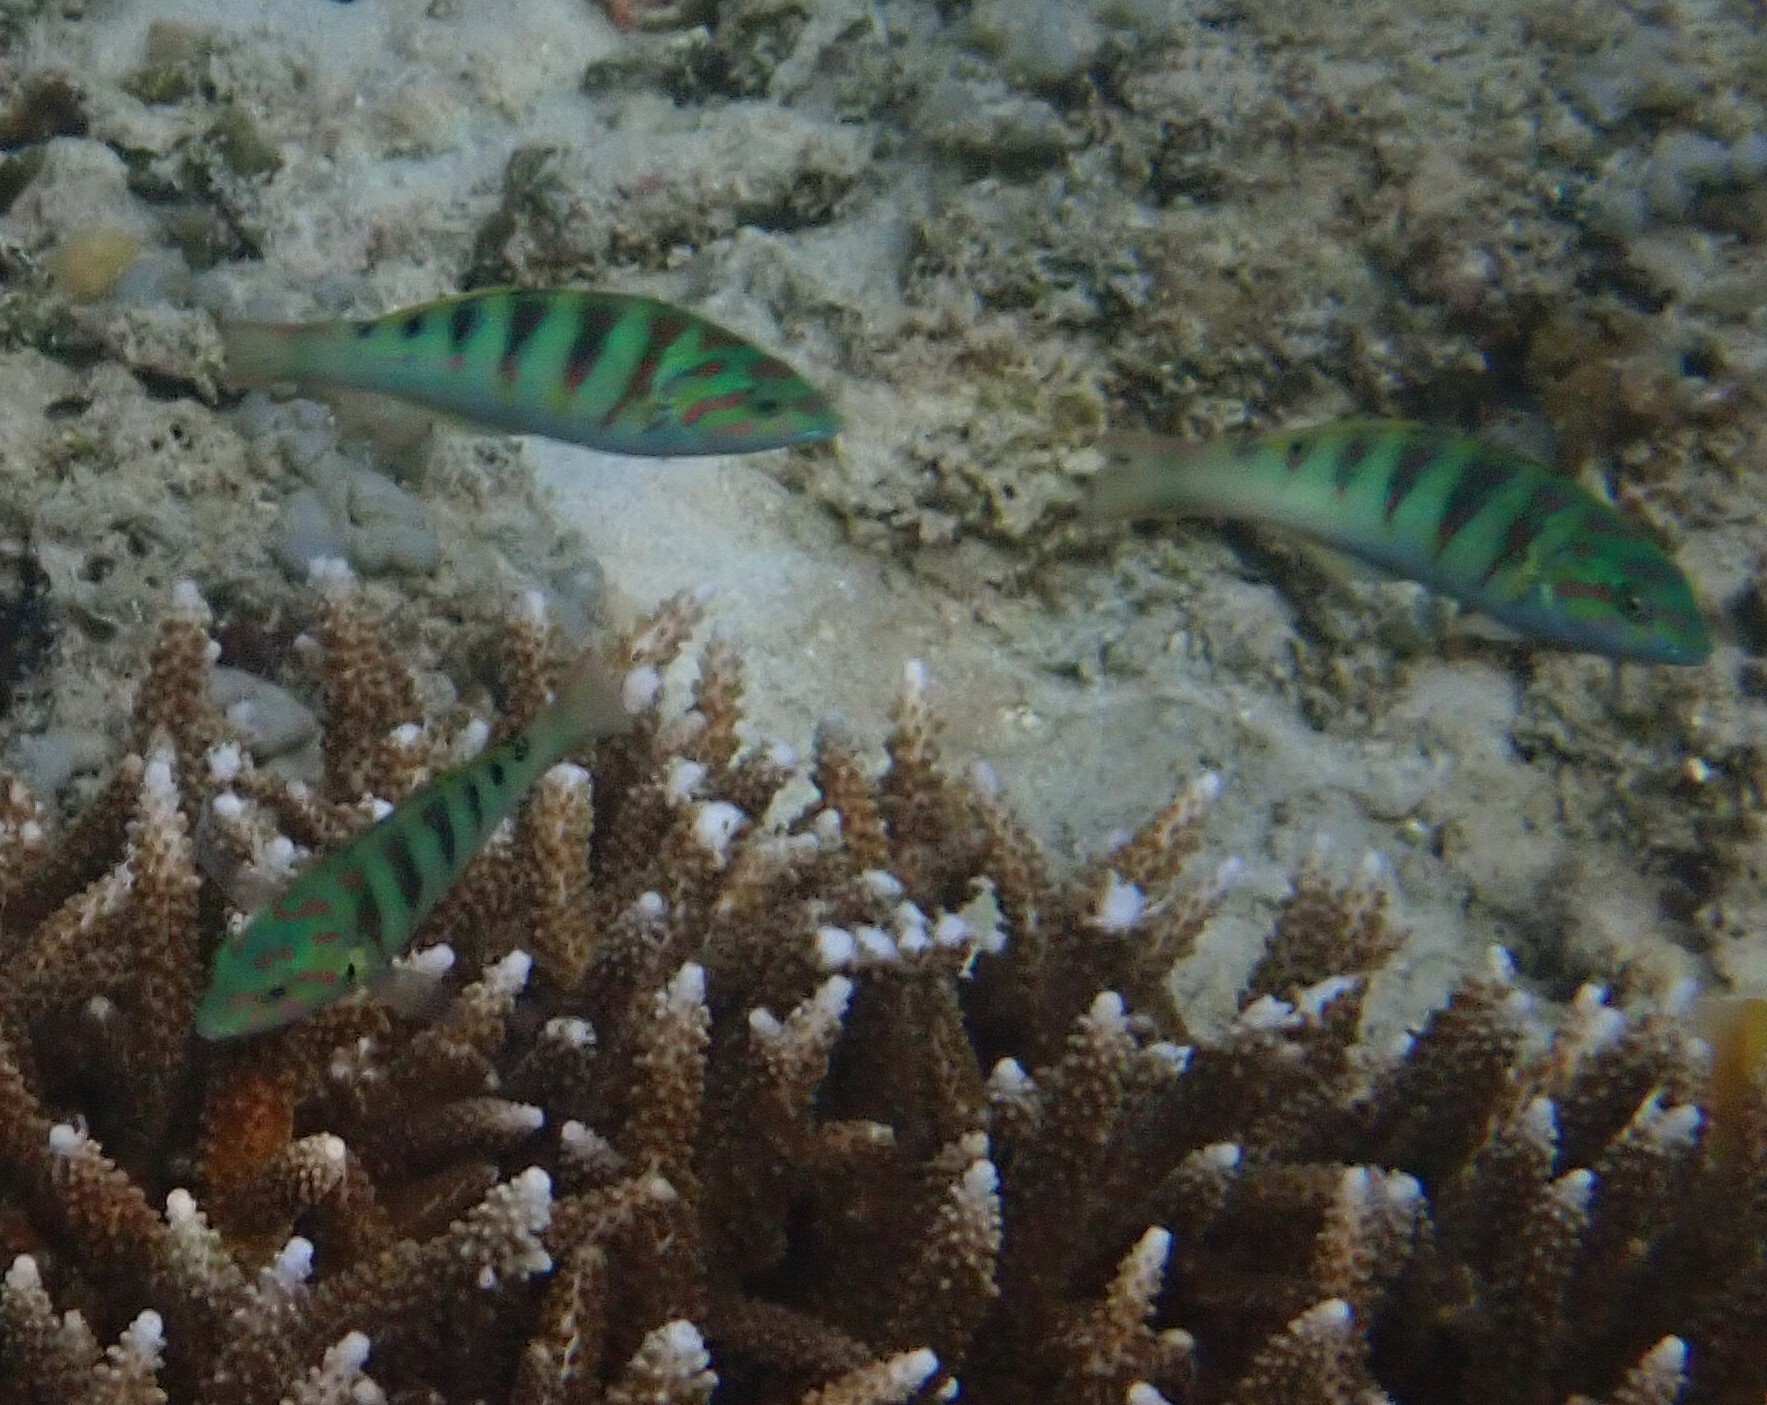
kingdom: Animalia
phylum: Chordata
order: Perciformes
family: Labridae
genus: Thalassoma
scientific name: Thalassoma hardwicke
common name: Sixbar wrasse
